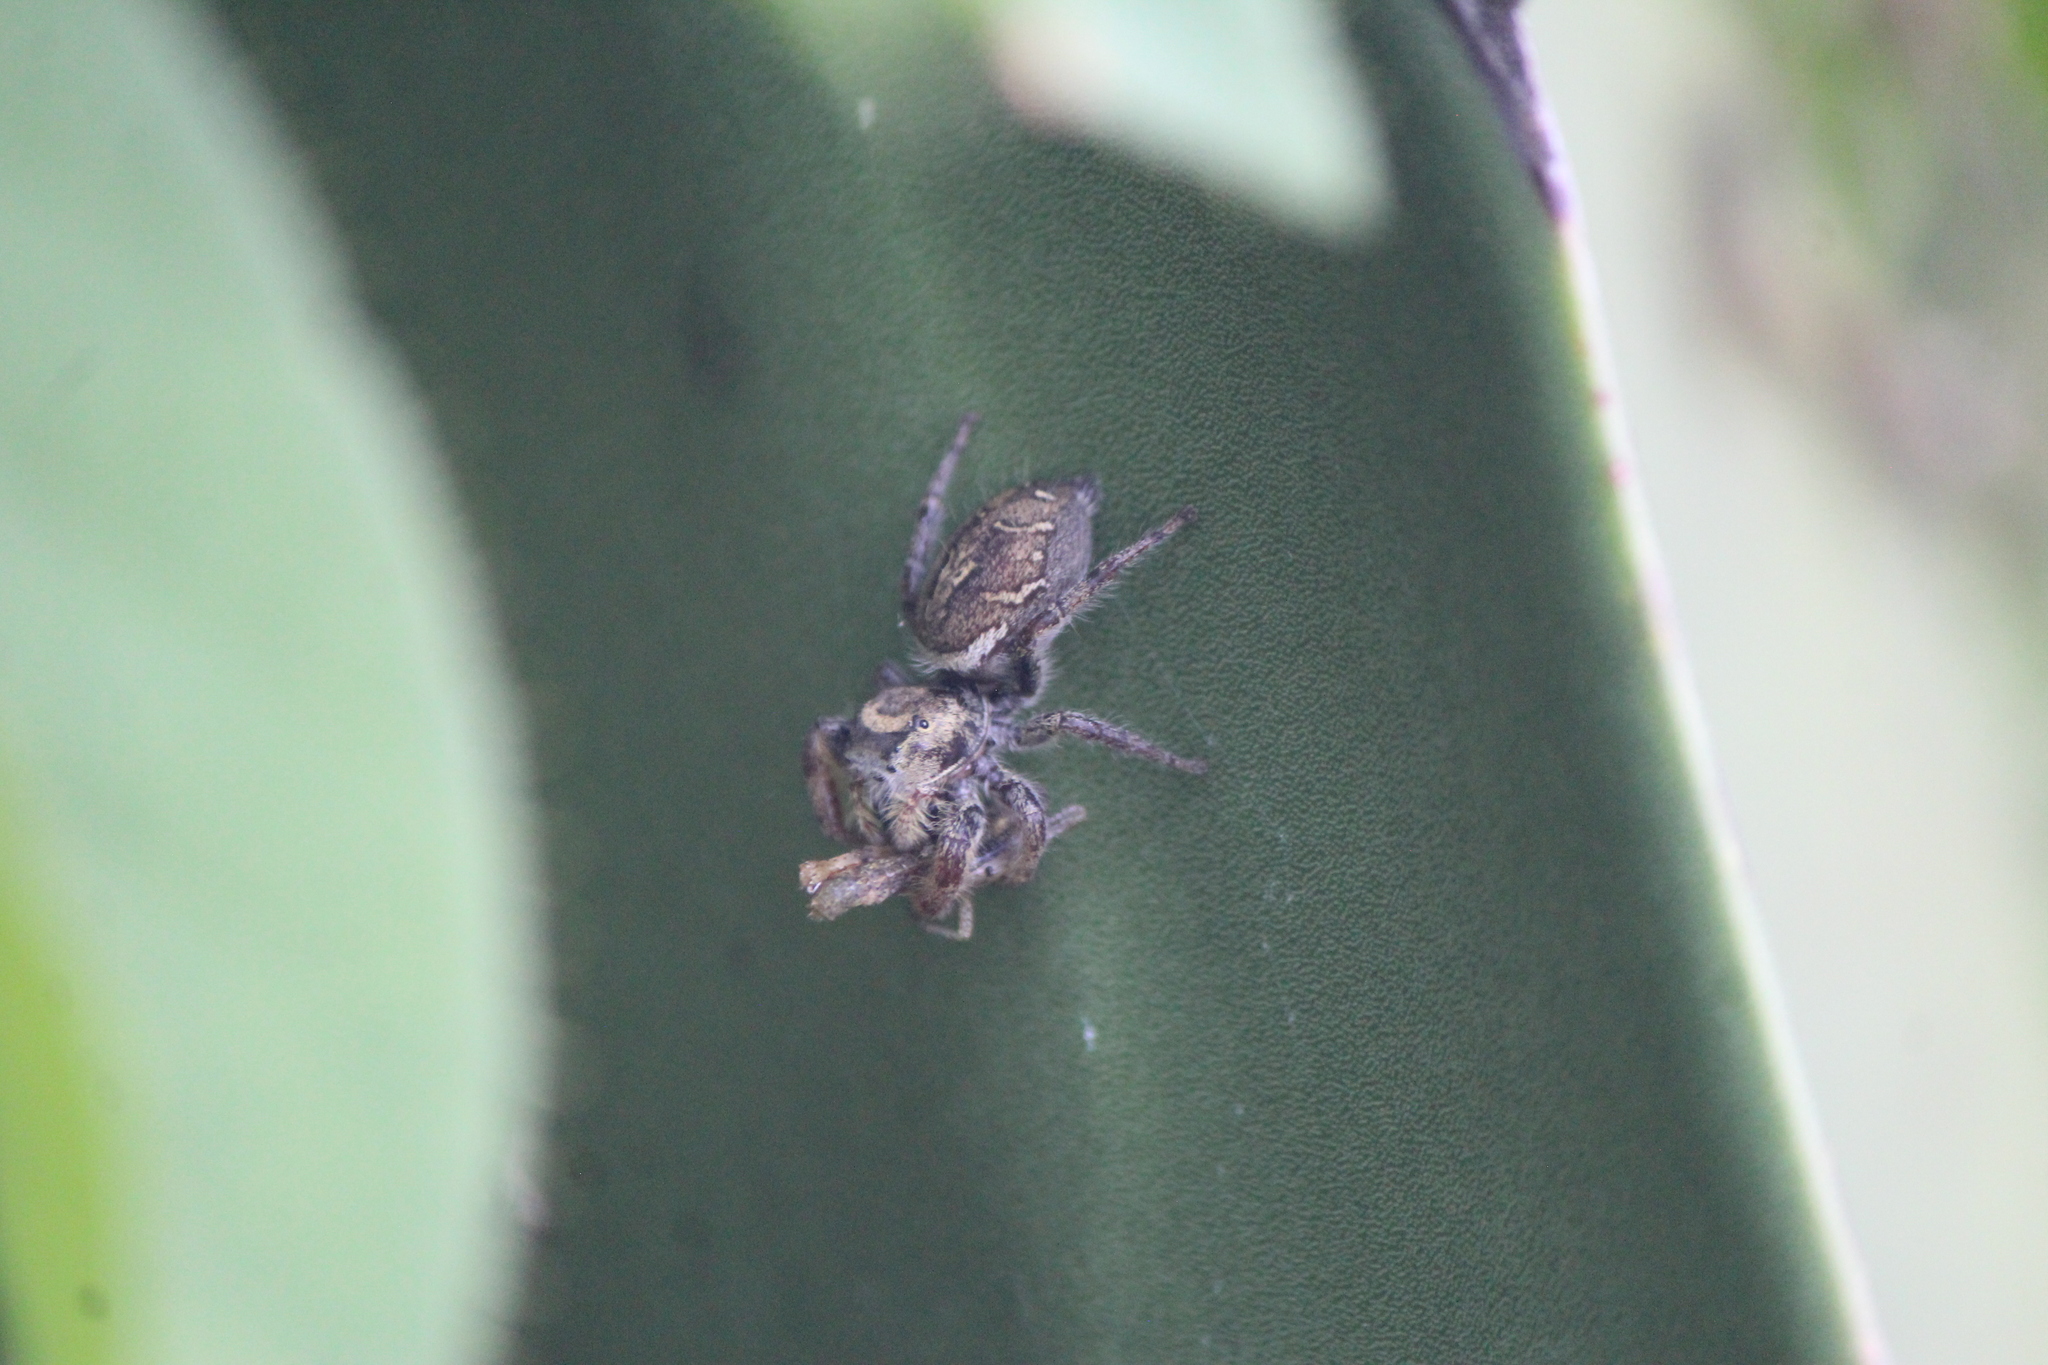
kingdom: Animalia
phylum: Arthropoda
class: Arachnida
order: Araneae
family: Salticidae
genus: Phidippus
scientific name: Phidippus arizonensis
